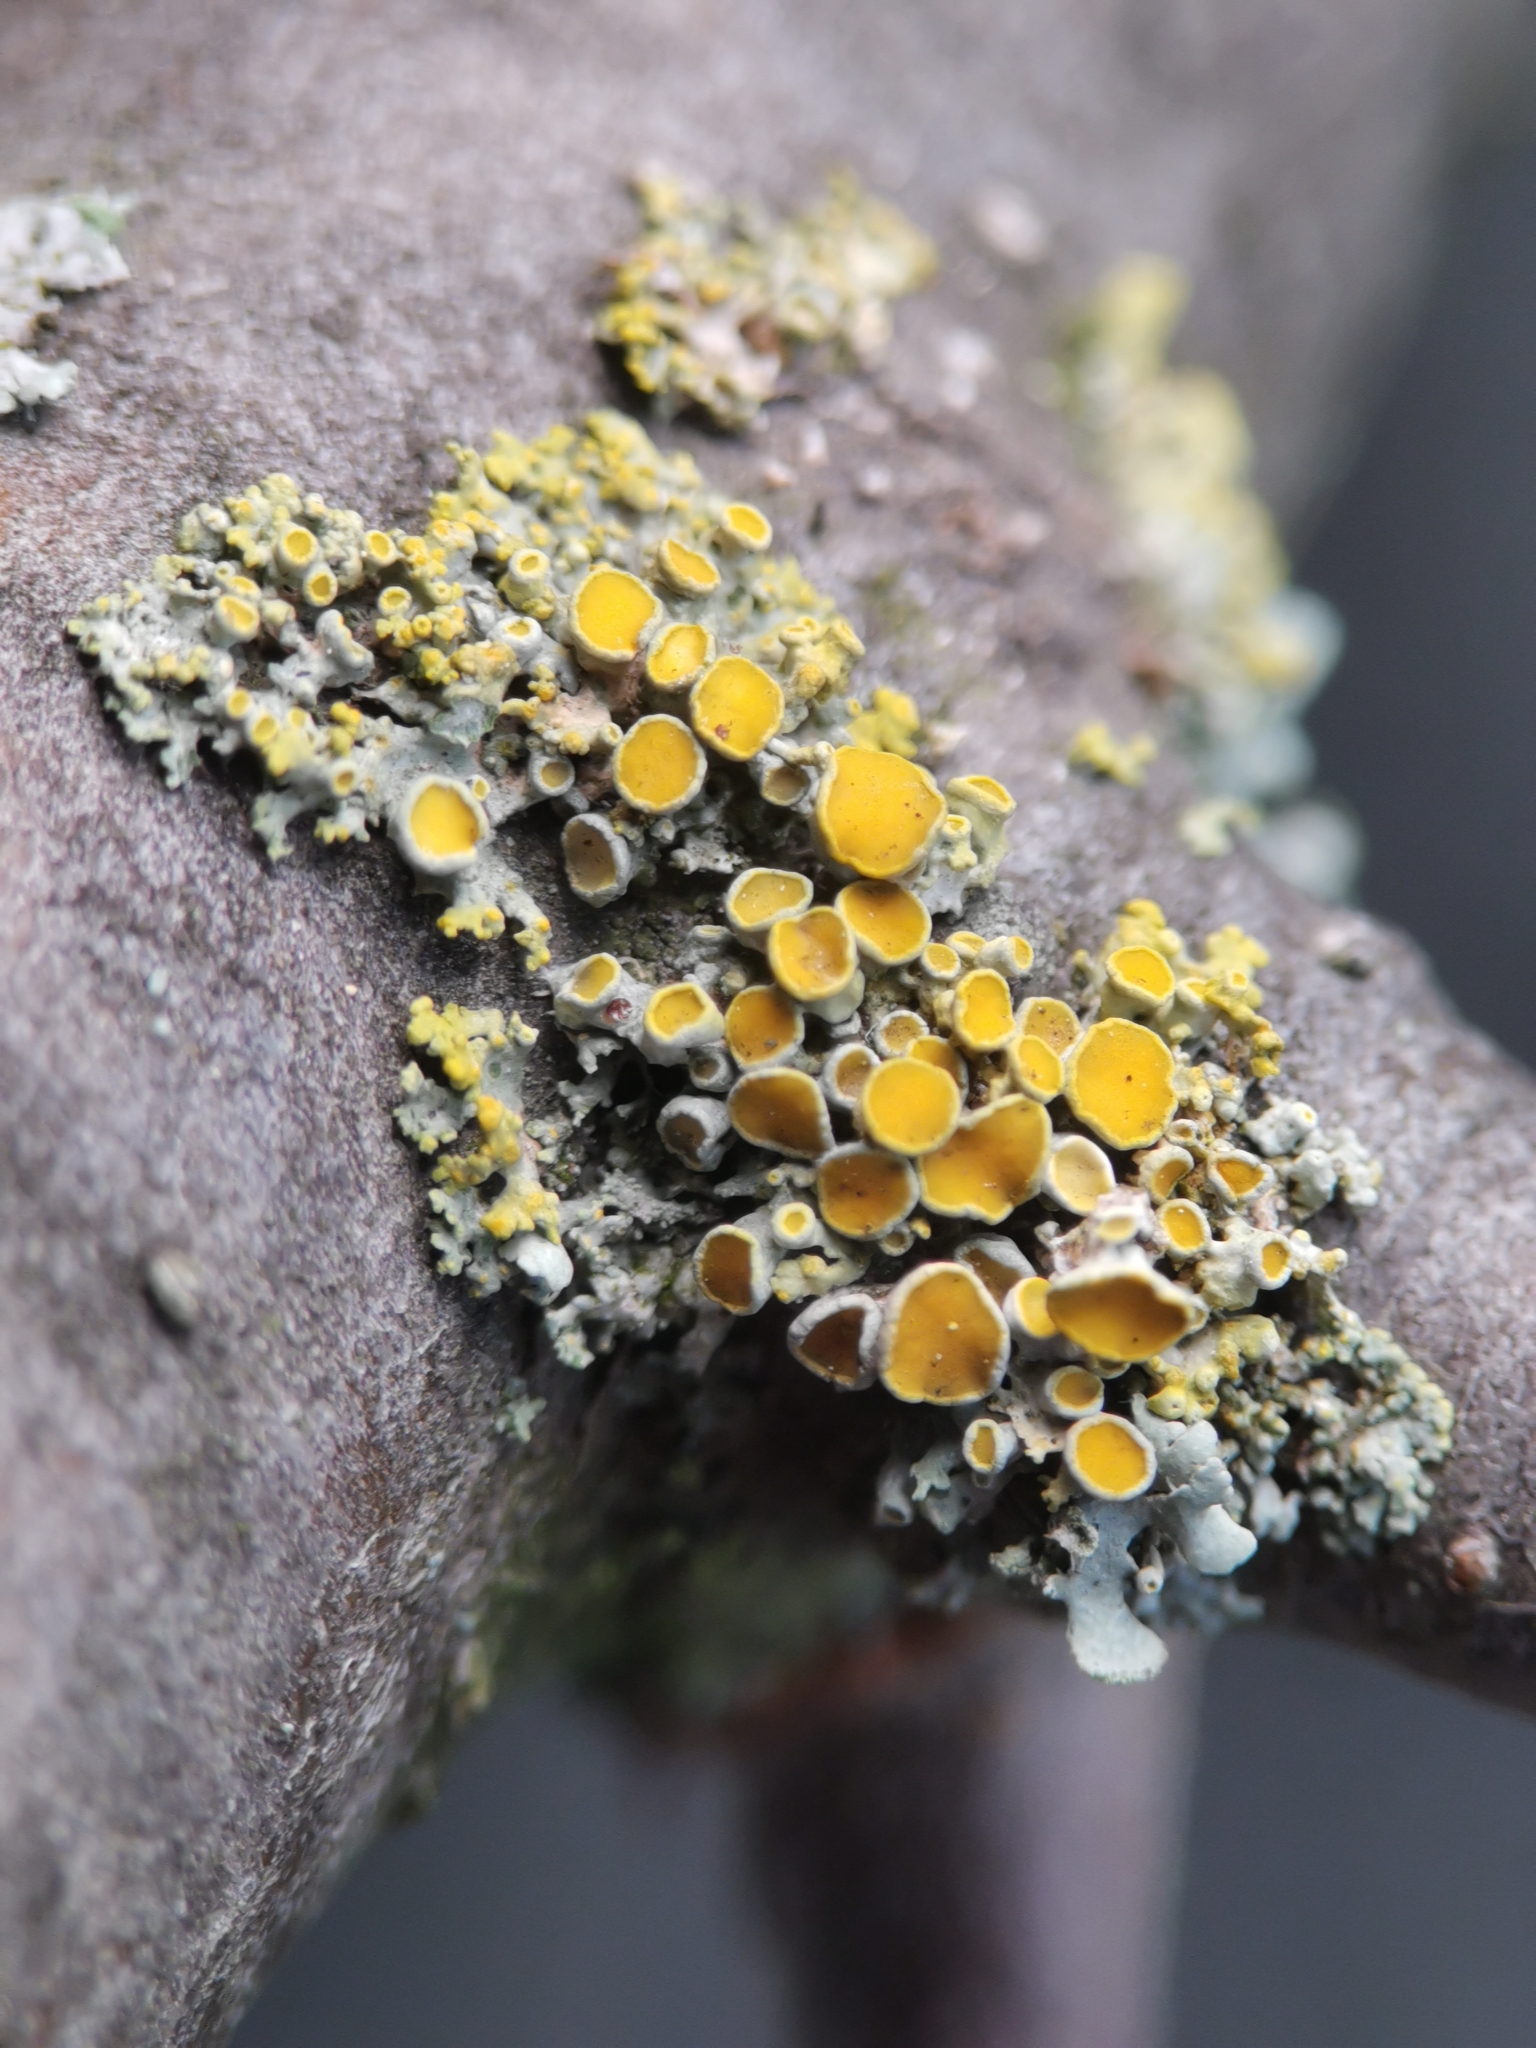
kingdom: Fungi
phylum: Ascomycota
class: Lecanoromycetes
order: Teloschistales
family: Teloschistaceae
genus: Polycauliona
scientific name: Polycauliona polycarpa
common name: Pin-cushion sunburst lichen
